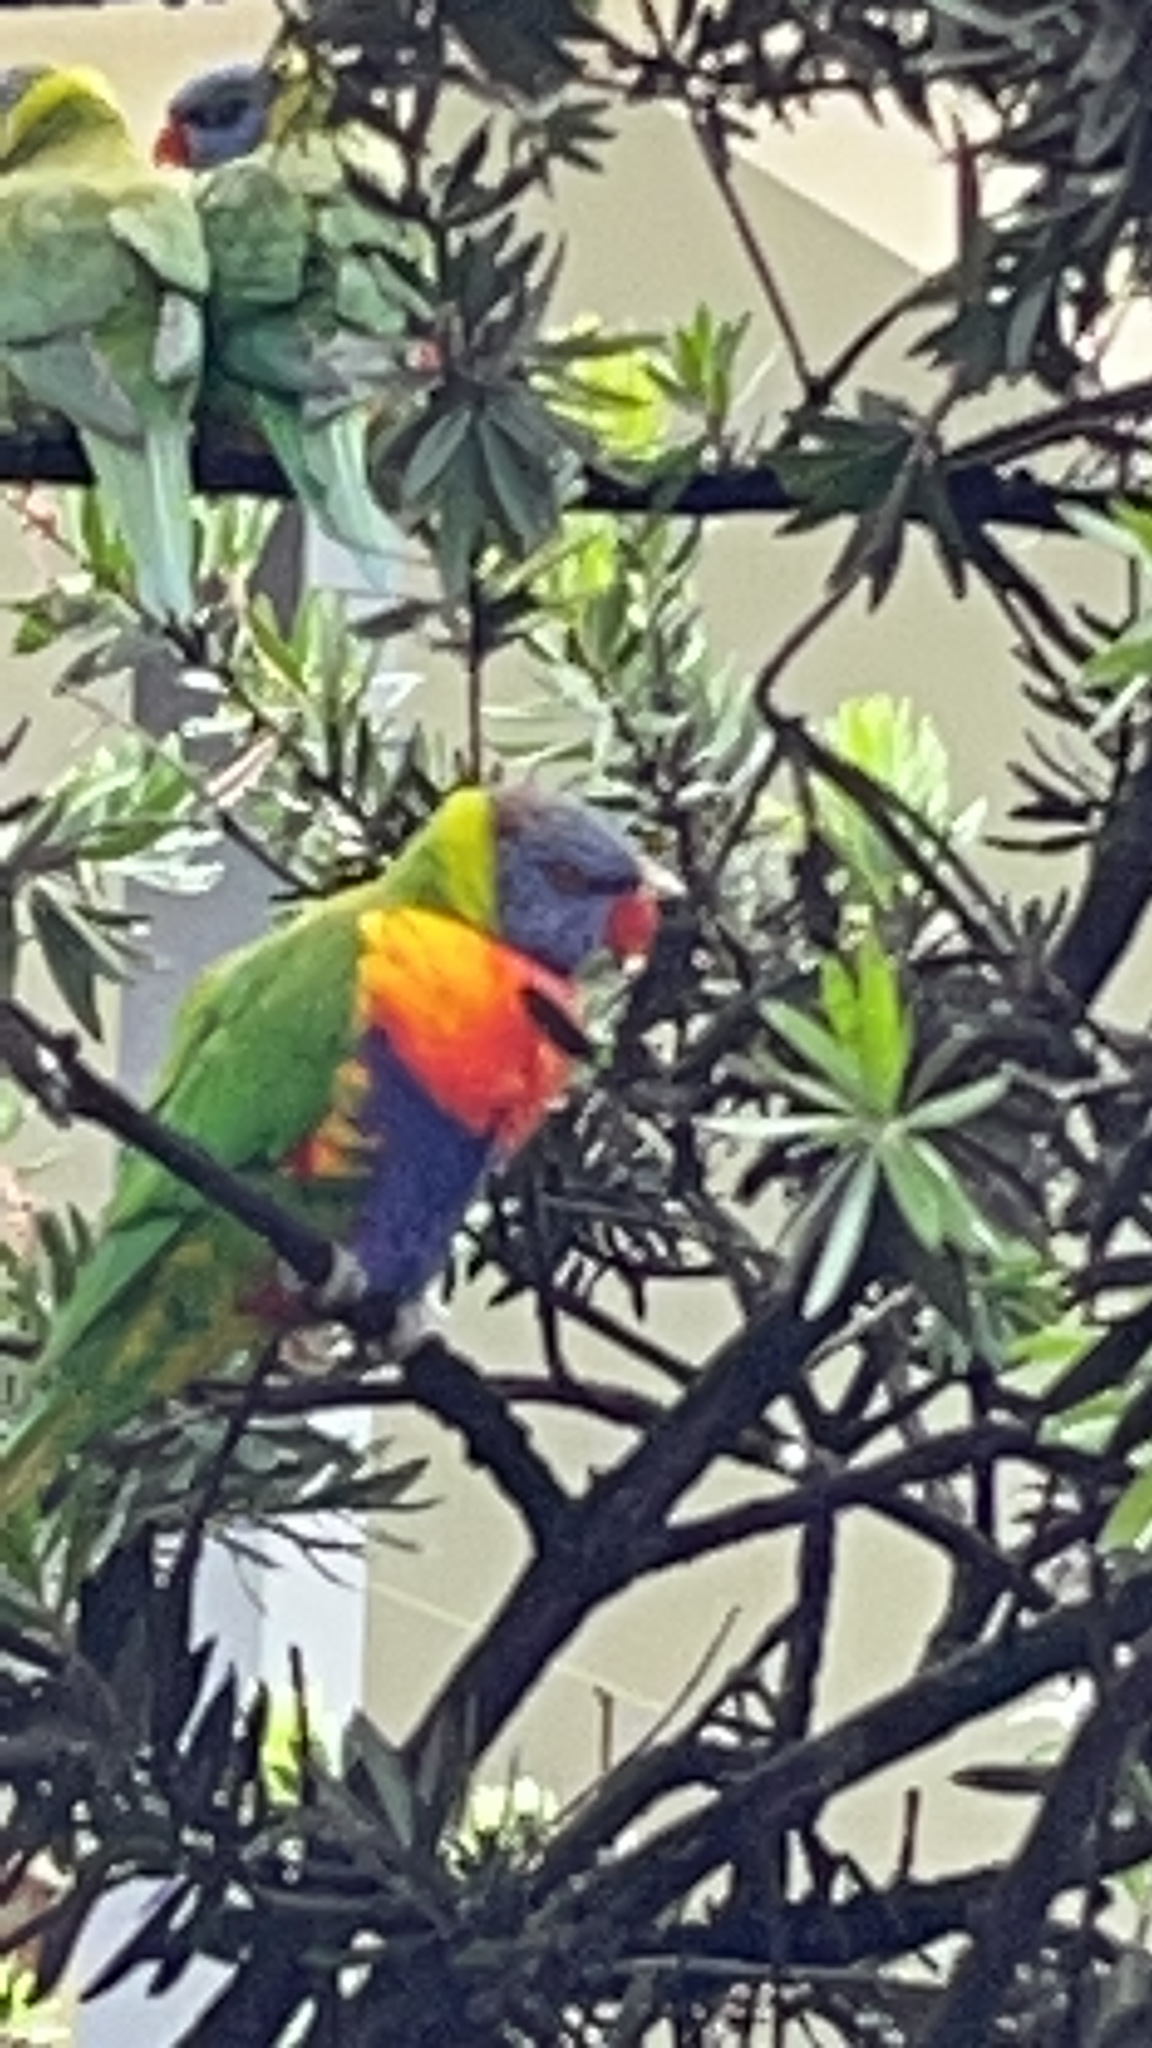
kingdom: Animalia
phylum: Chordata
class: Aves
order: Psittaciformes
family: Psittacidae
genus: Trichoglossus
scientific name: Trichoglossus haematodus
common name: Coconut lorikeet
